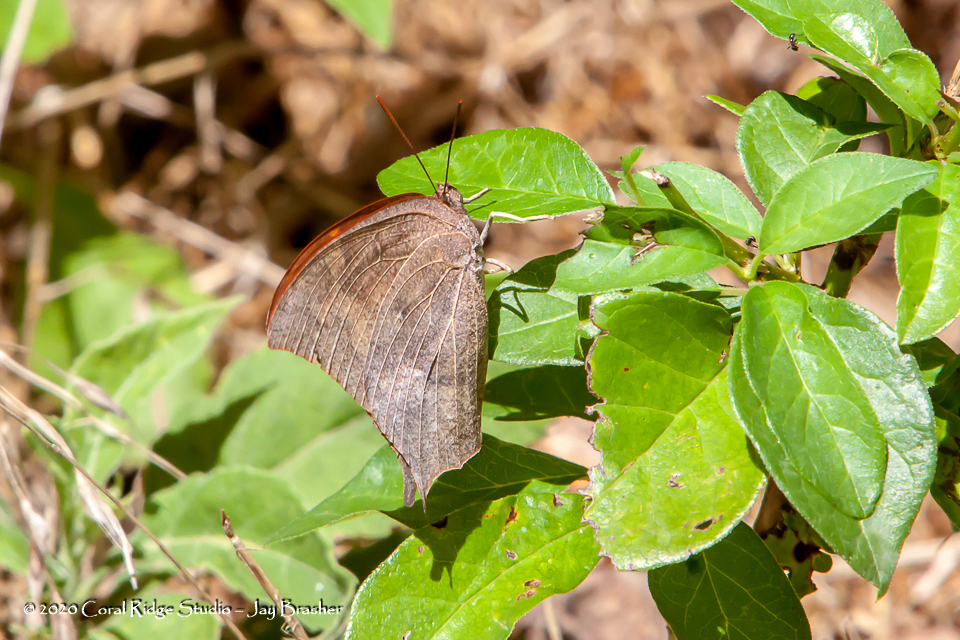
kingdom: Animalia
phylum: Arthropoda
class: Insecta
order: Lepidoptera
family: Nymphalidae
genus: Anaea
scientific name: Anaea andria
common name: Goatweed leafwing
